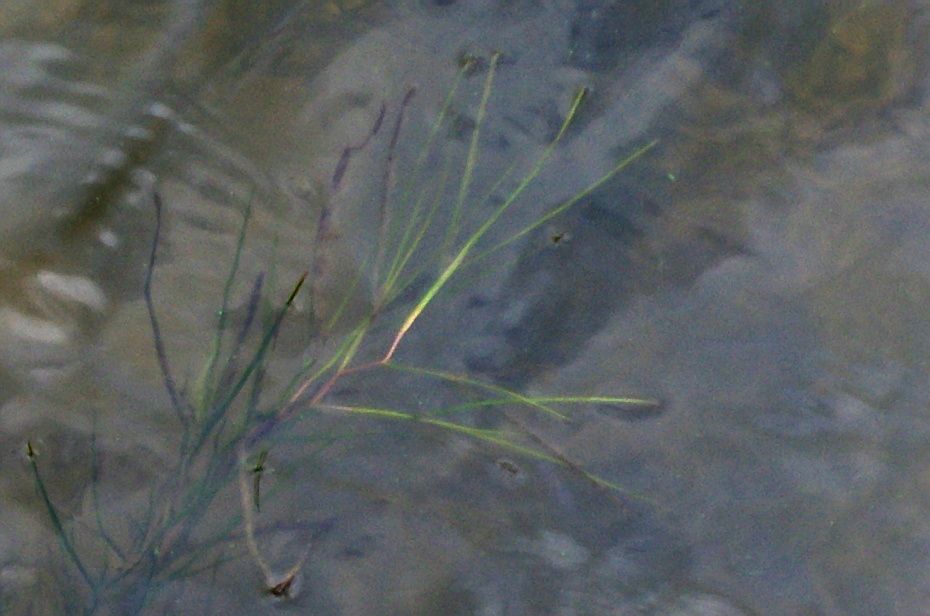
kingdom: Plantae
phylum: Tracheophyta
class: Liliopsida
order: Alismatales
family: Potamogetonaceae
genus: Stuckenia
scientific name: Stuckenia pectinata
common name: Sago pondweed
